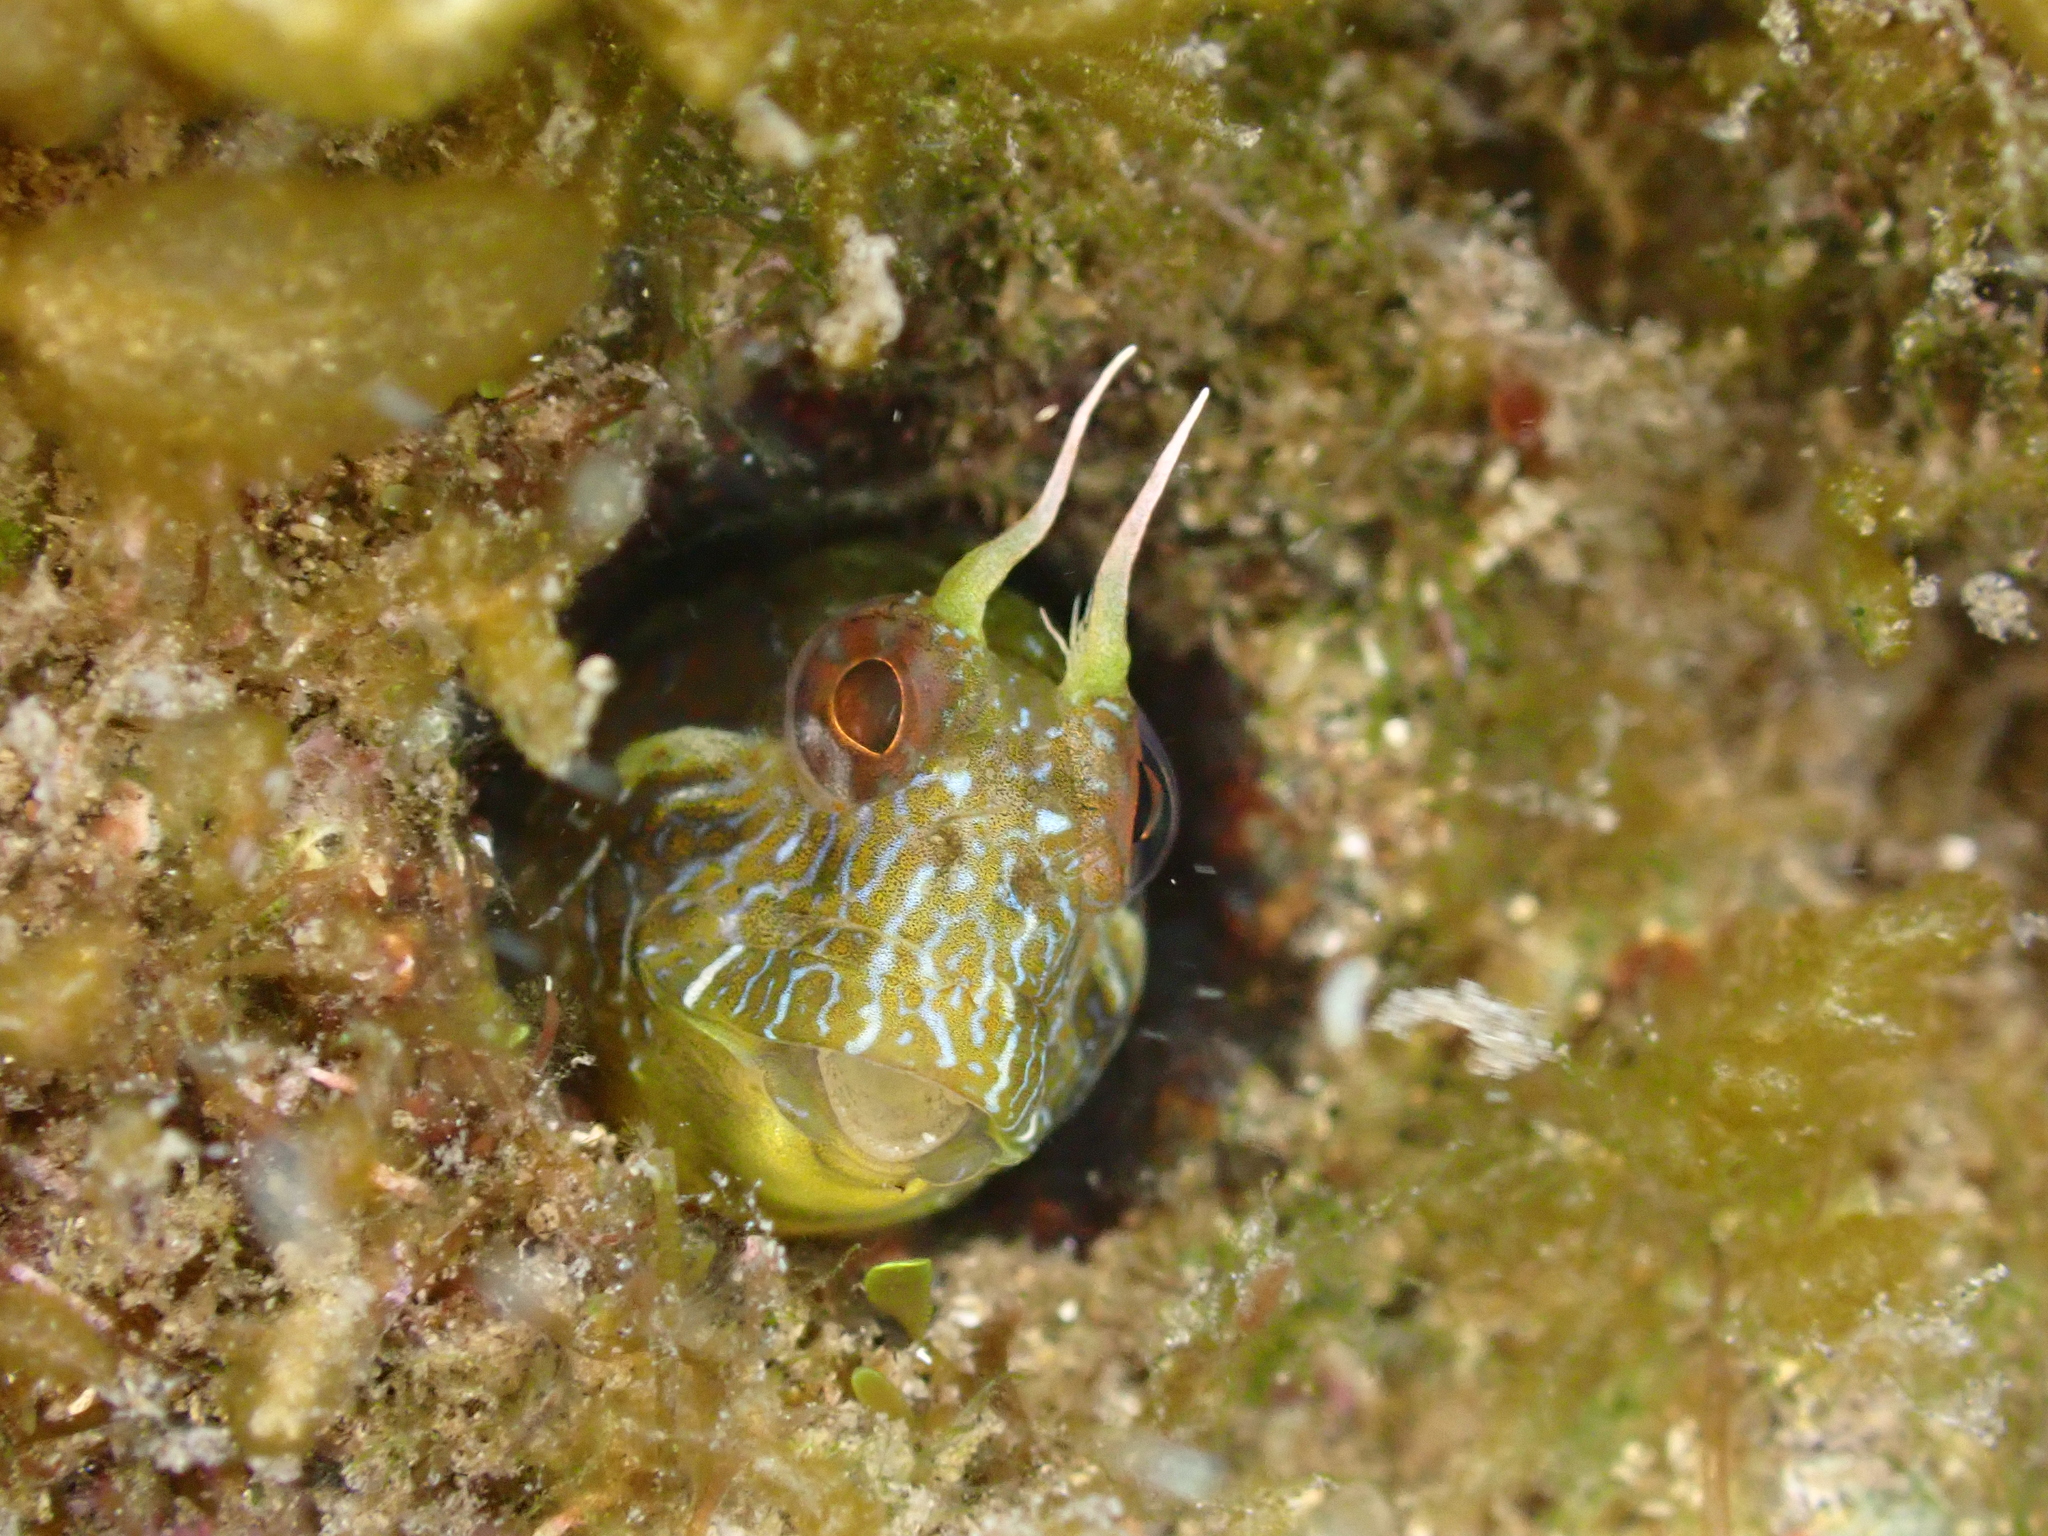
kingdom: Animalia
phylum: Chordata
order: Perciformes
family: Blenniidae
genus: Parablennius
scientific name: Parablennius incognitus
